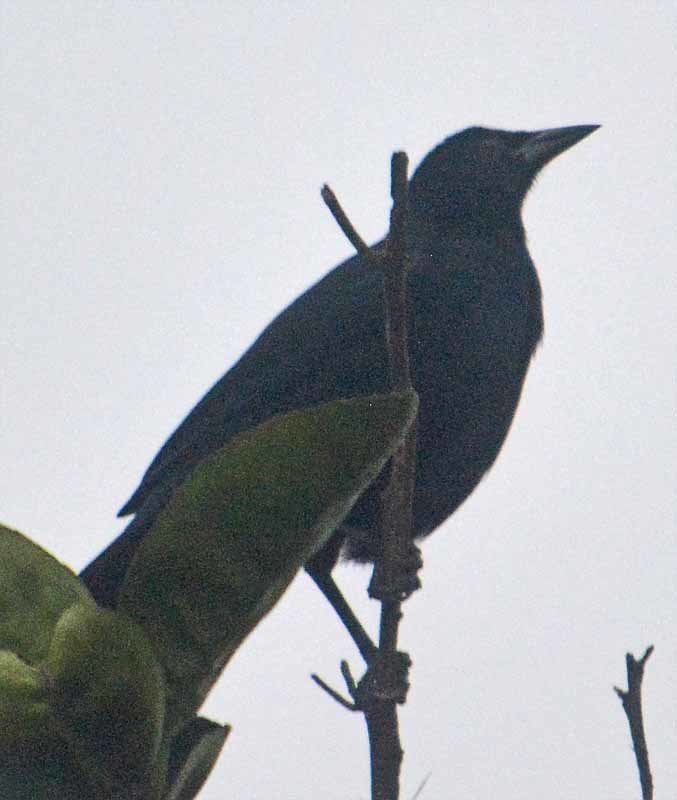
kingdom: Animalia
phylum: Chordata
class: Aves
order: Passeriformes
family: Icteridae
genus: Dives
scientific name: Dives dives
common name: Melodious blackbird
